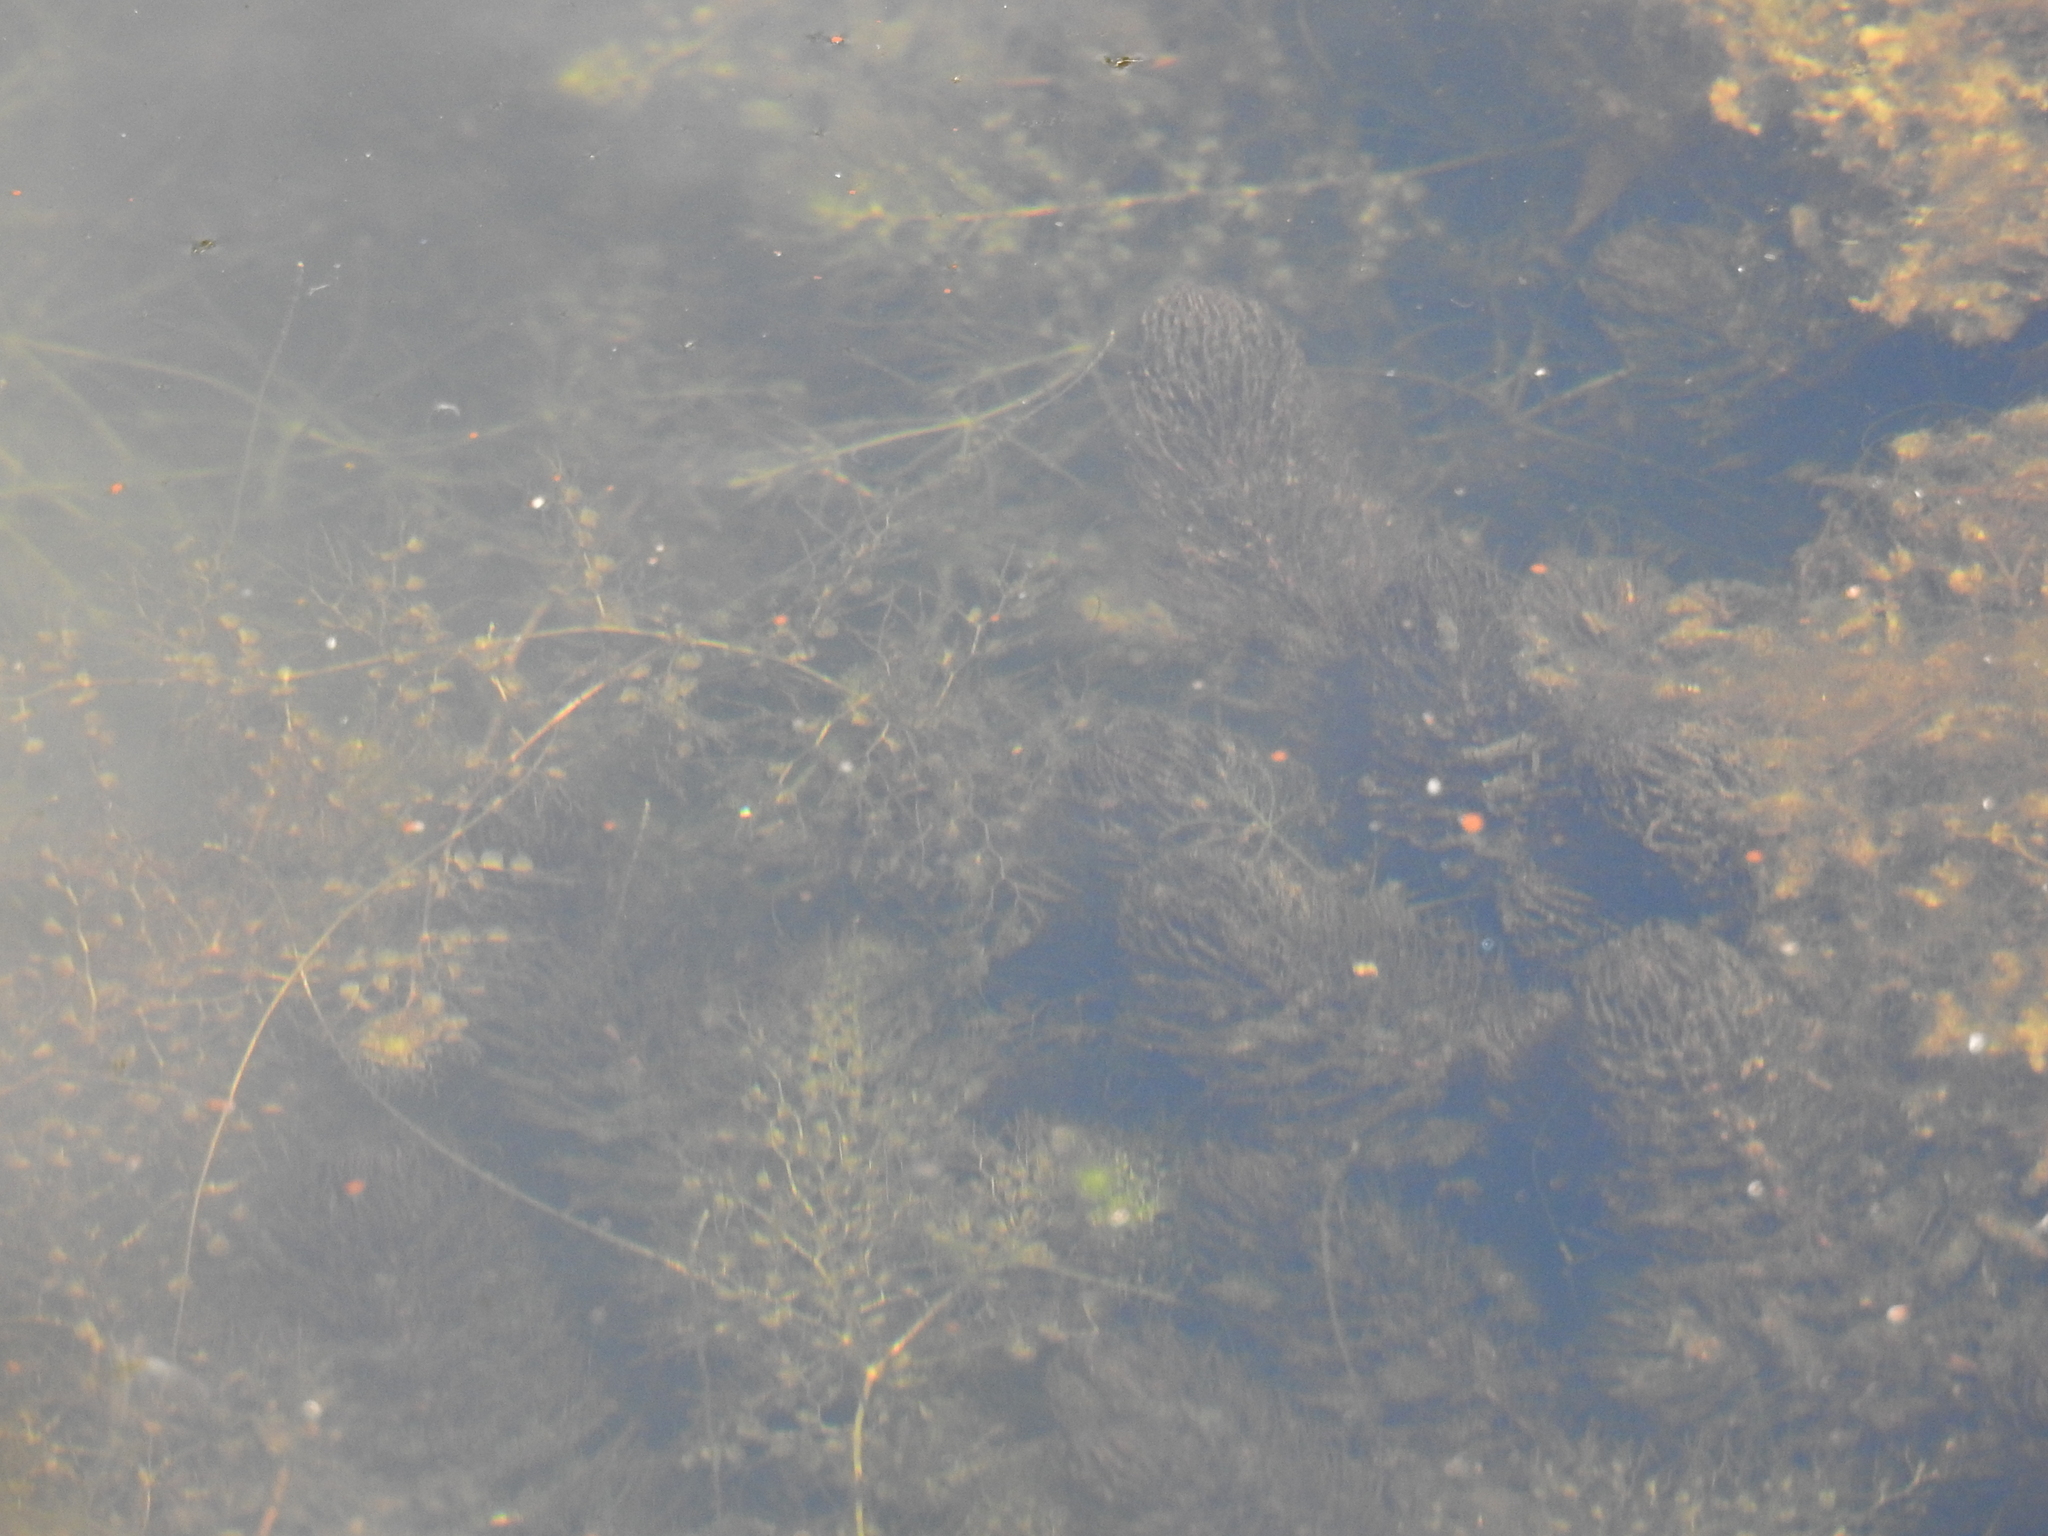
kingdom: Plantae
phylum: Tracheophyta
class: Magnoliopsida
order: Ceratophyllales
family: Ceratophyllaceae
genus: Ceratophyllum
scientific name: Ceratophyllum demersum
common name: Rigid hornwort
